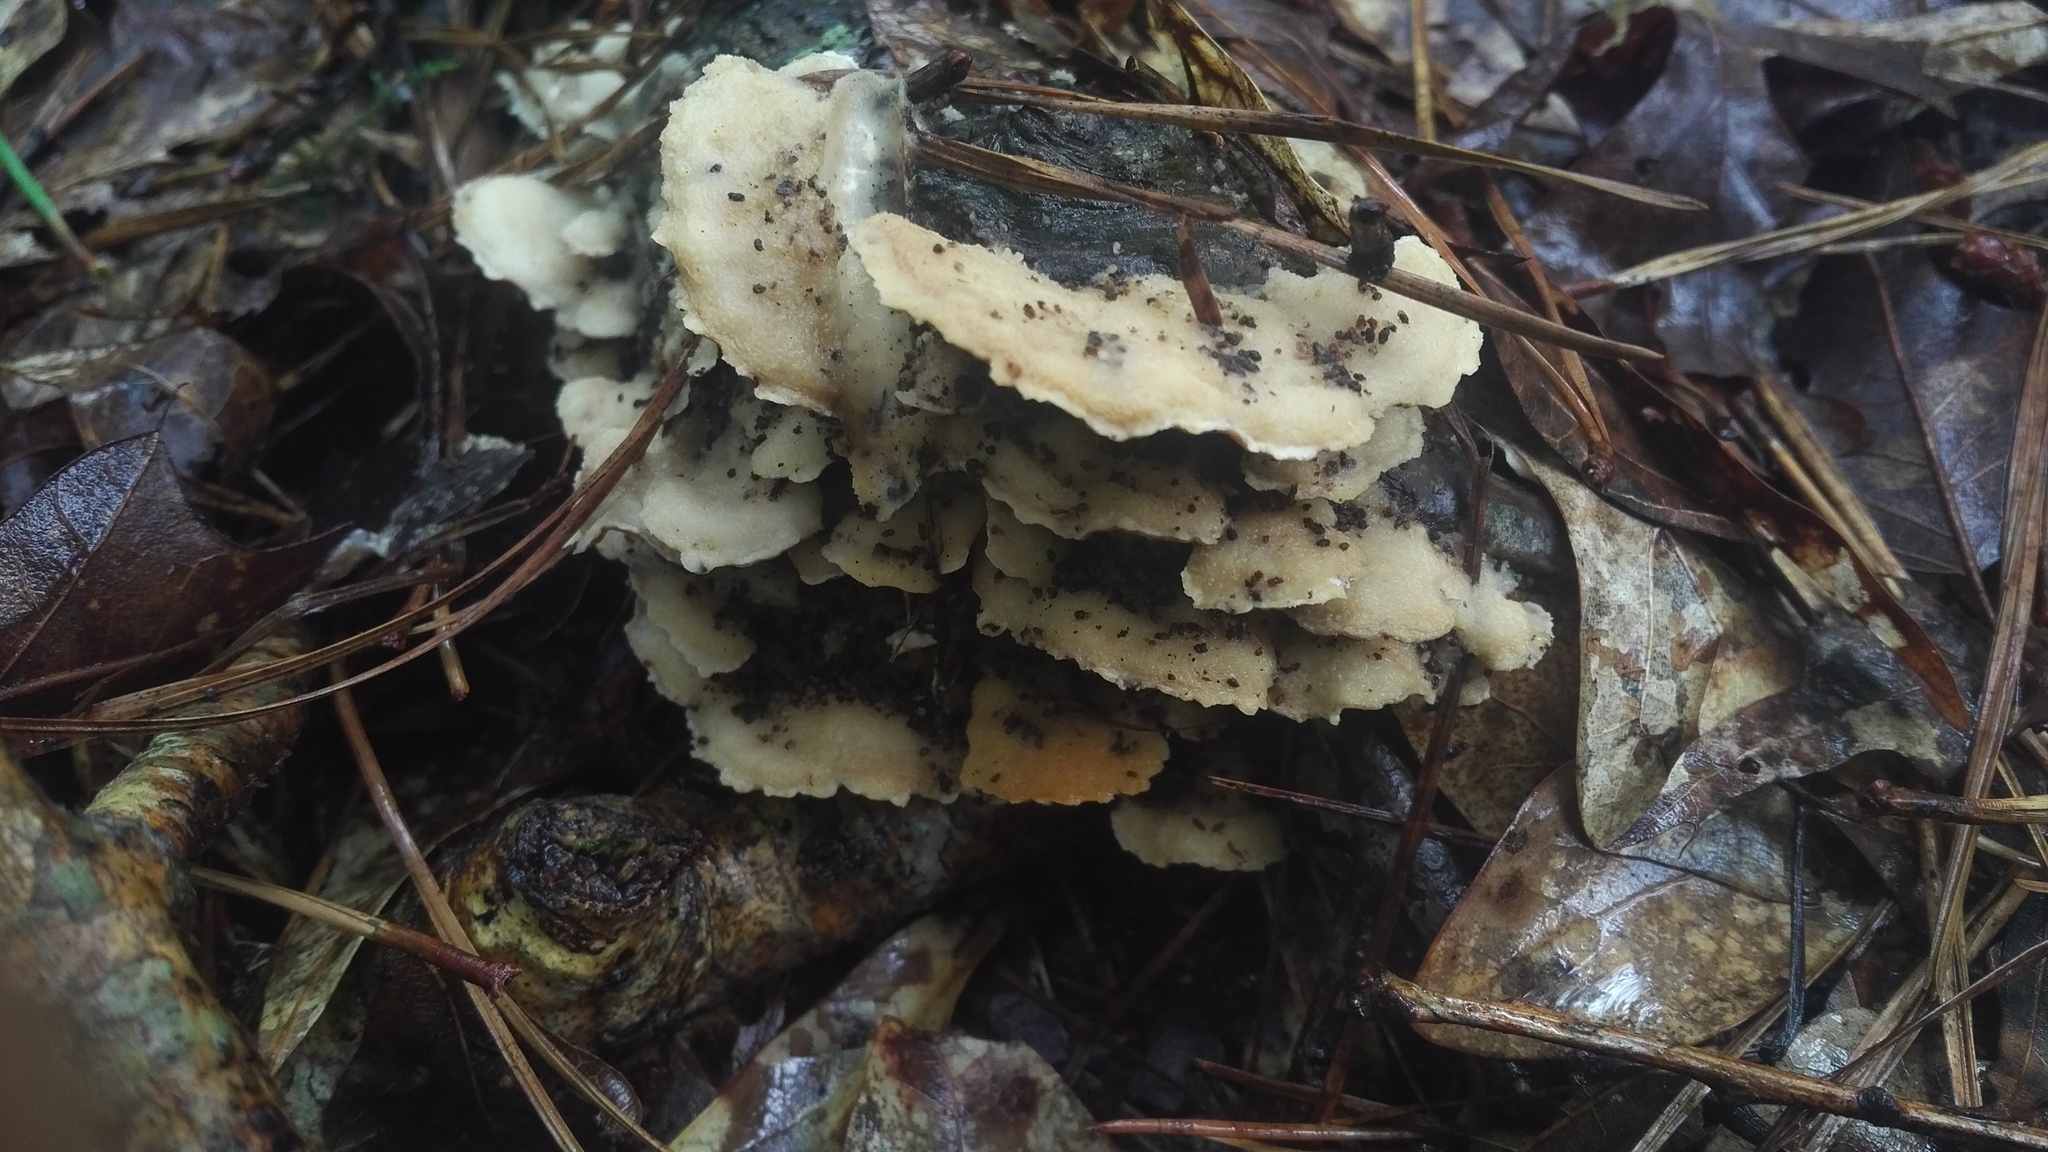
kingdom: Fungi
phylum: Basidiomycota
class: Agaricomycetes
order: Polyporales
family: Irpicaceae
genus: Vitreoporus
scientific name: Vitreoporus dichrous
